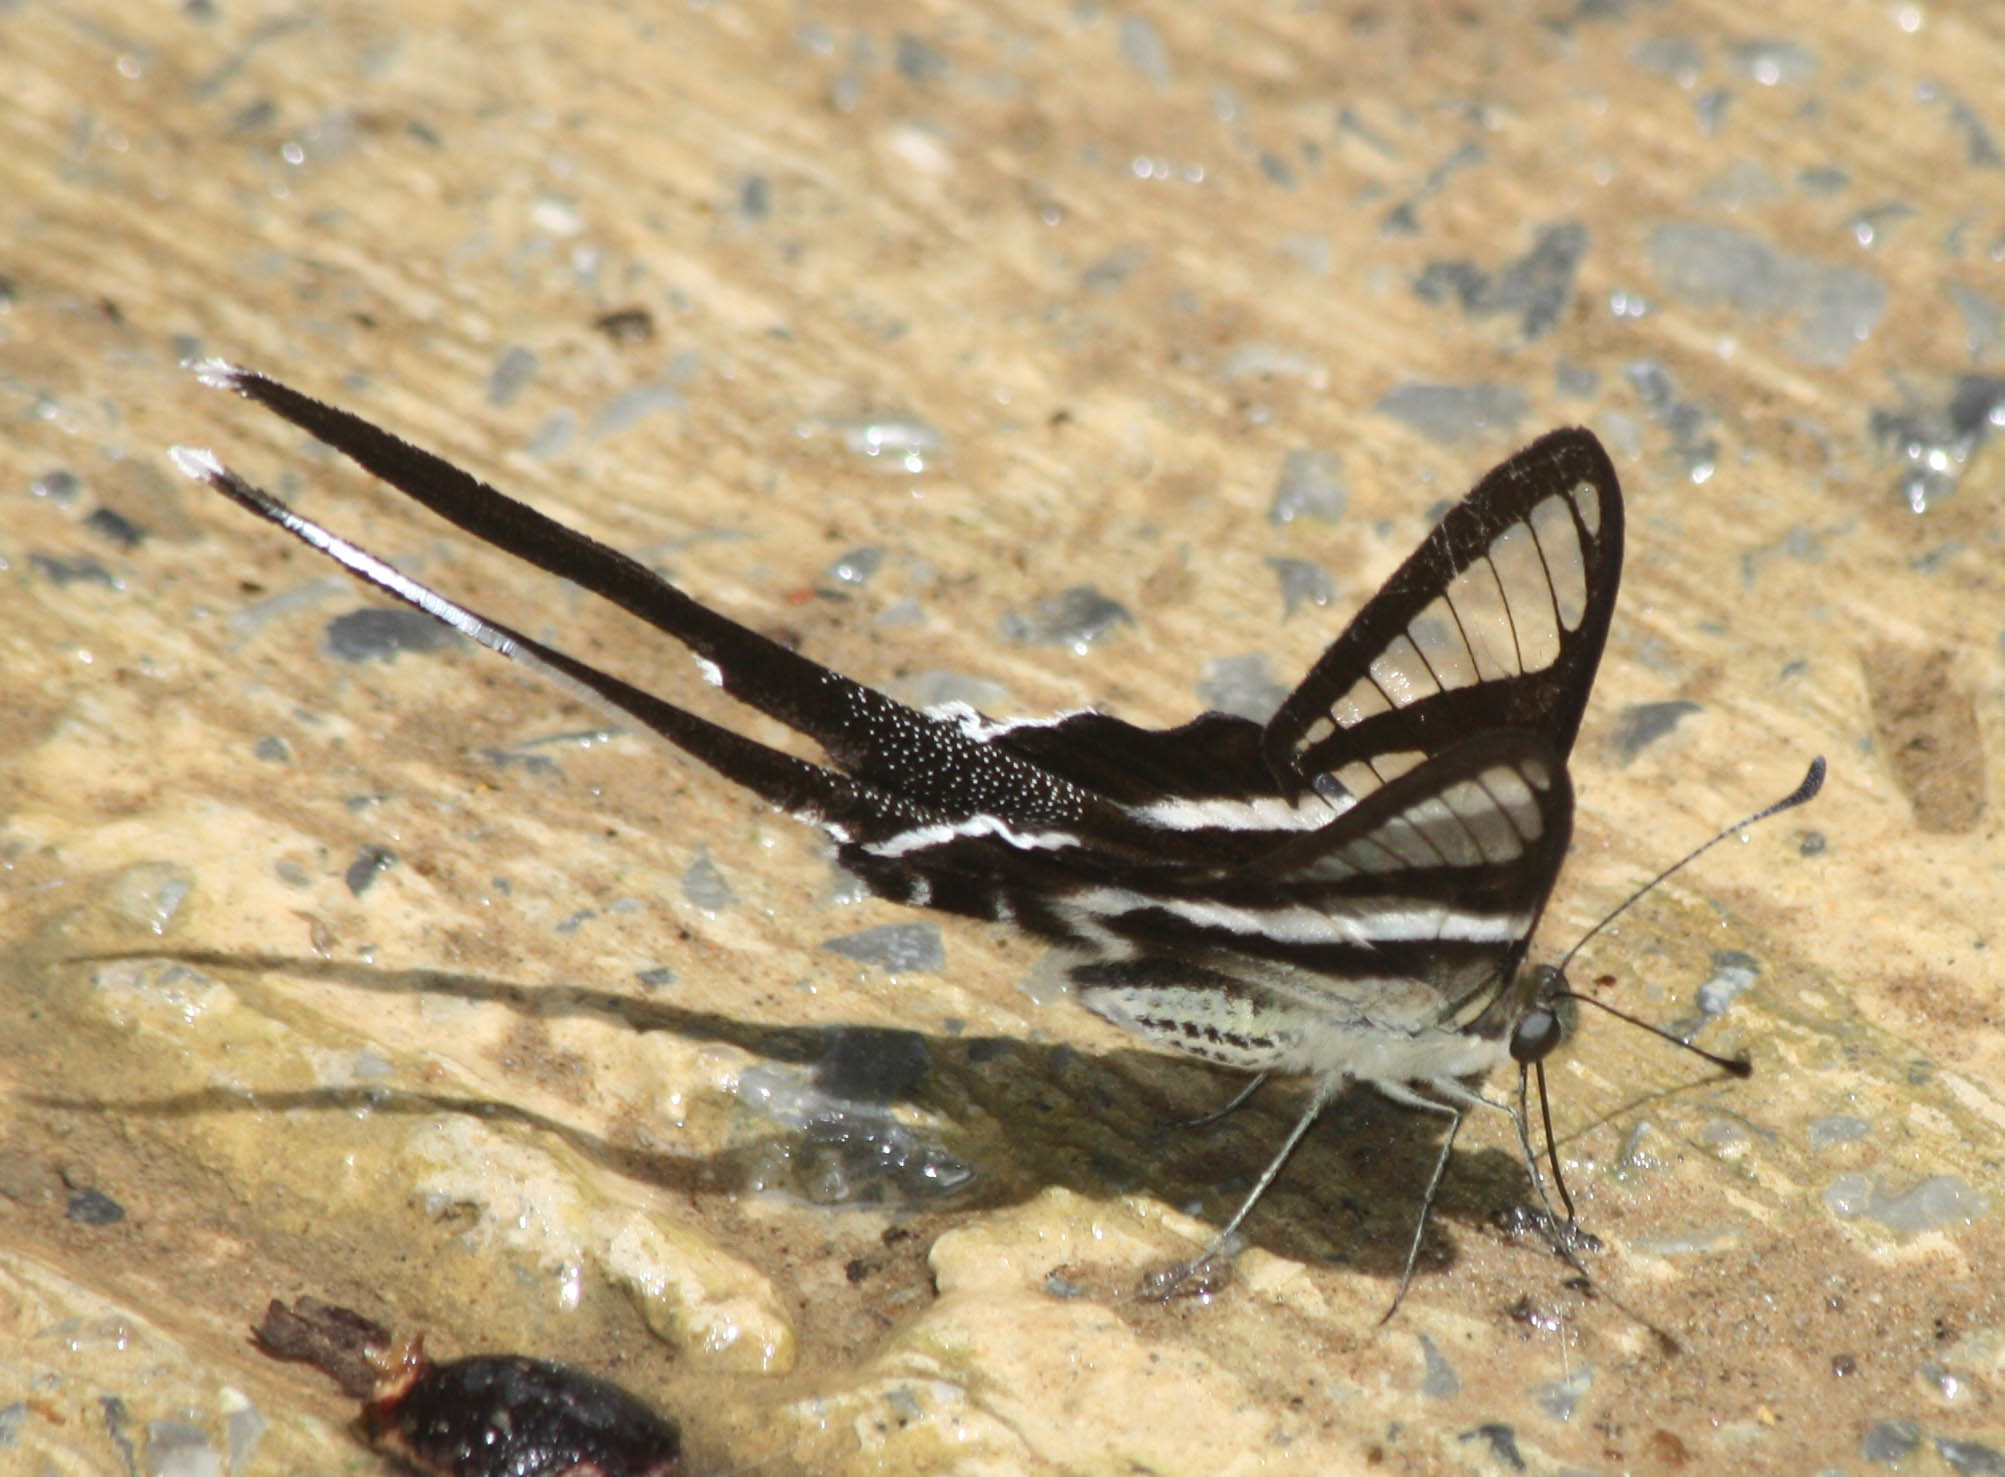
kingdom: Animalia
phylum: Arthropoda
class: Insecta
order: Lepidoptera
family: Papilionidae
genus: Lamproptera
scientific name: Lamproptera curius
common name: White dragontail
